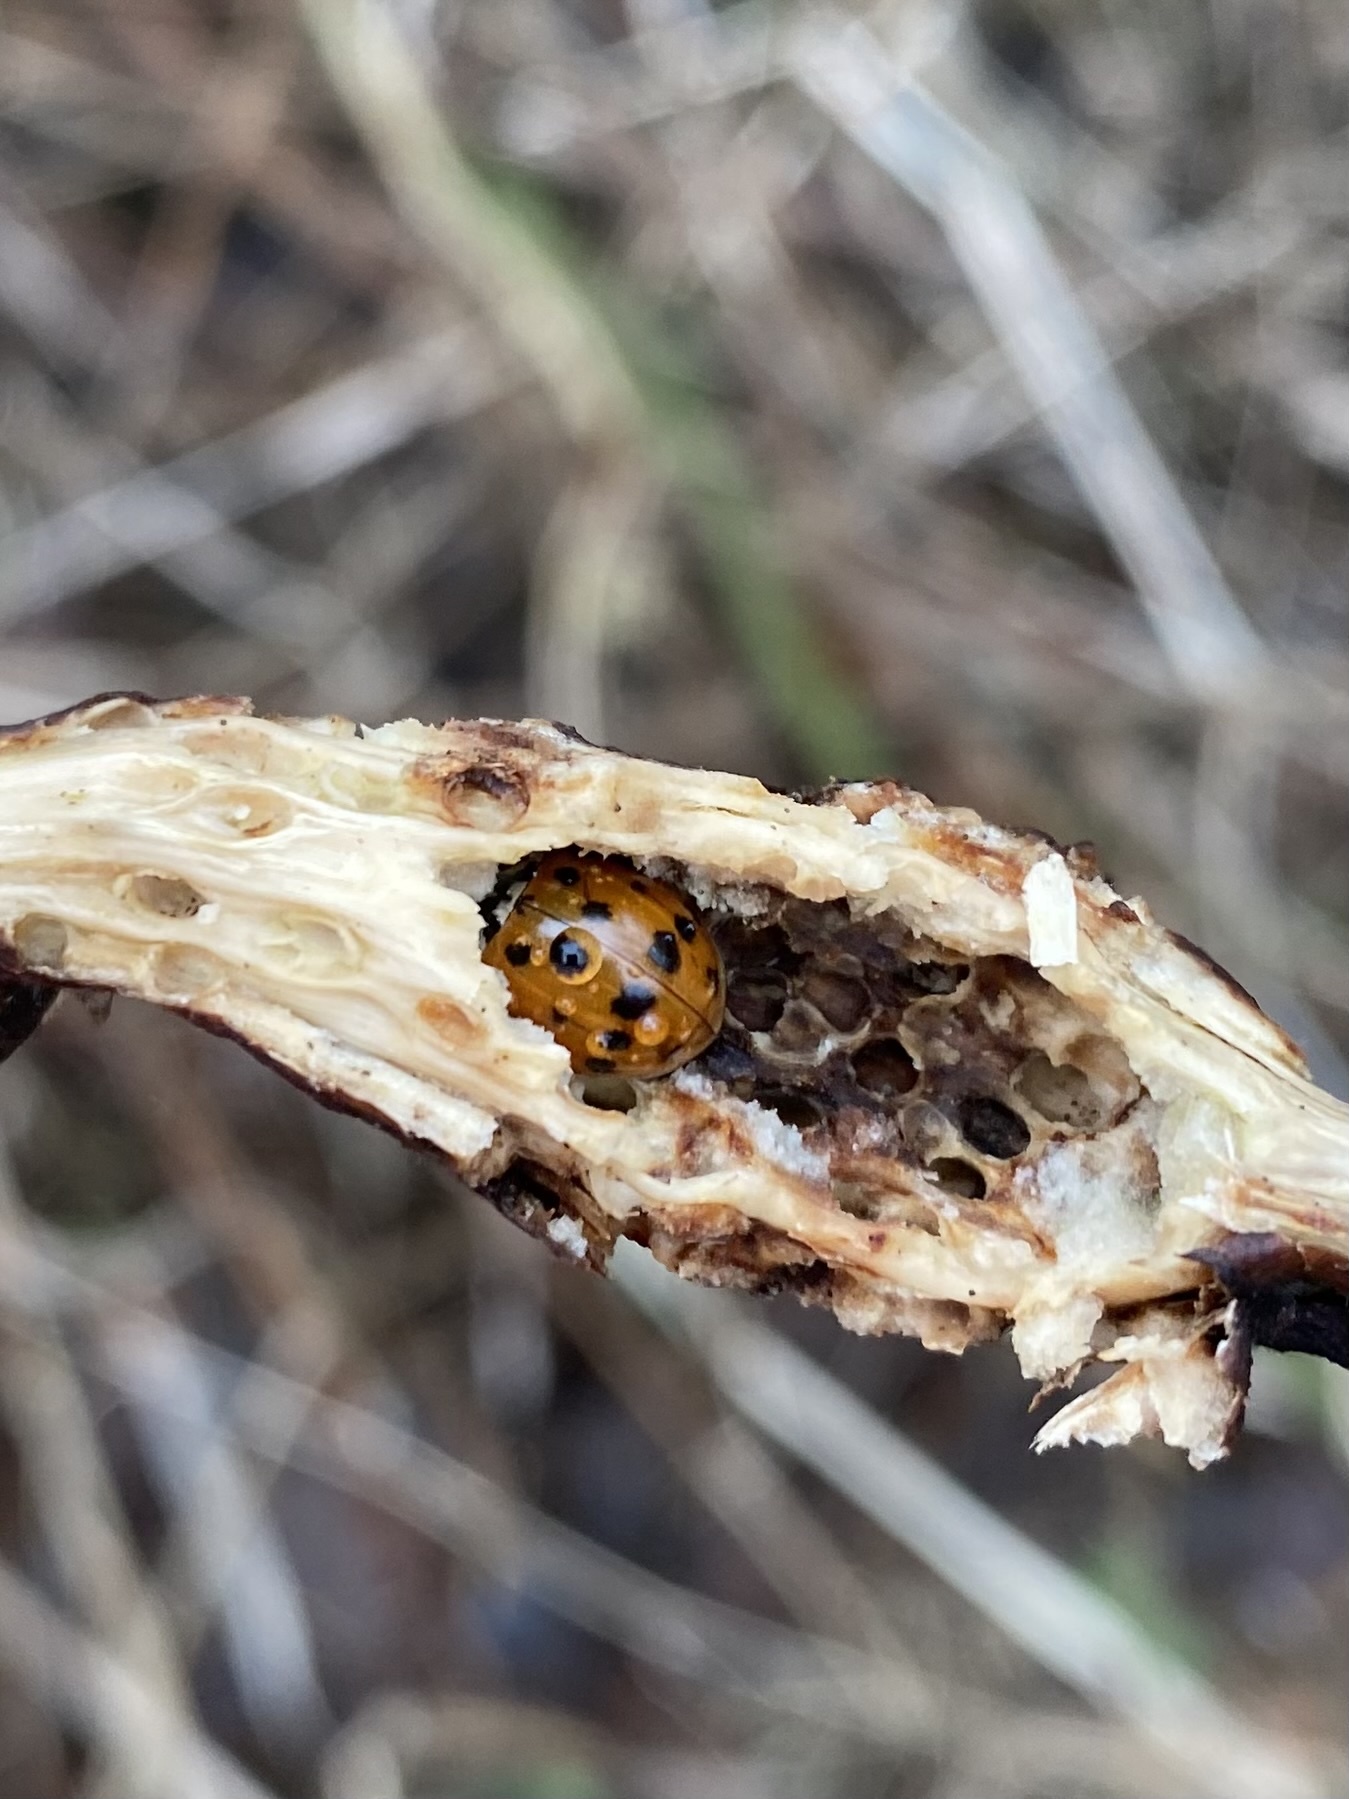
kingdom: Animalia
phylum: Arthropoda
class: Insecta
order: Coleoptera
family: Coccinellidae
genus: Harmonia
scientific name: Harmonia axyridis
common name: Harlequin ladybird
